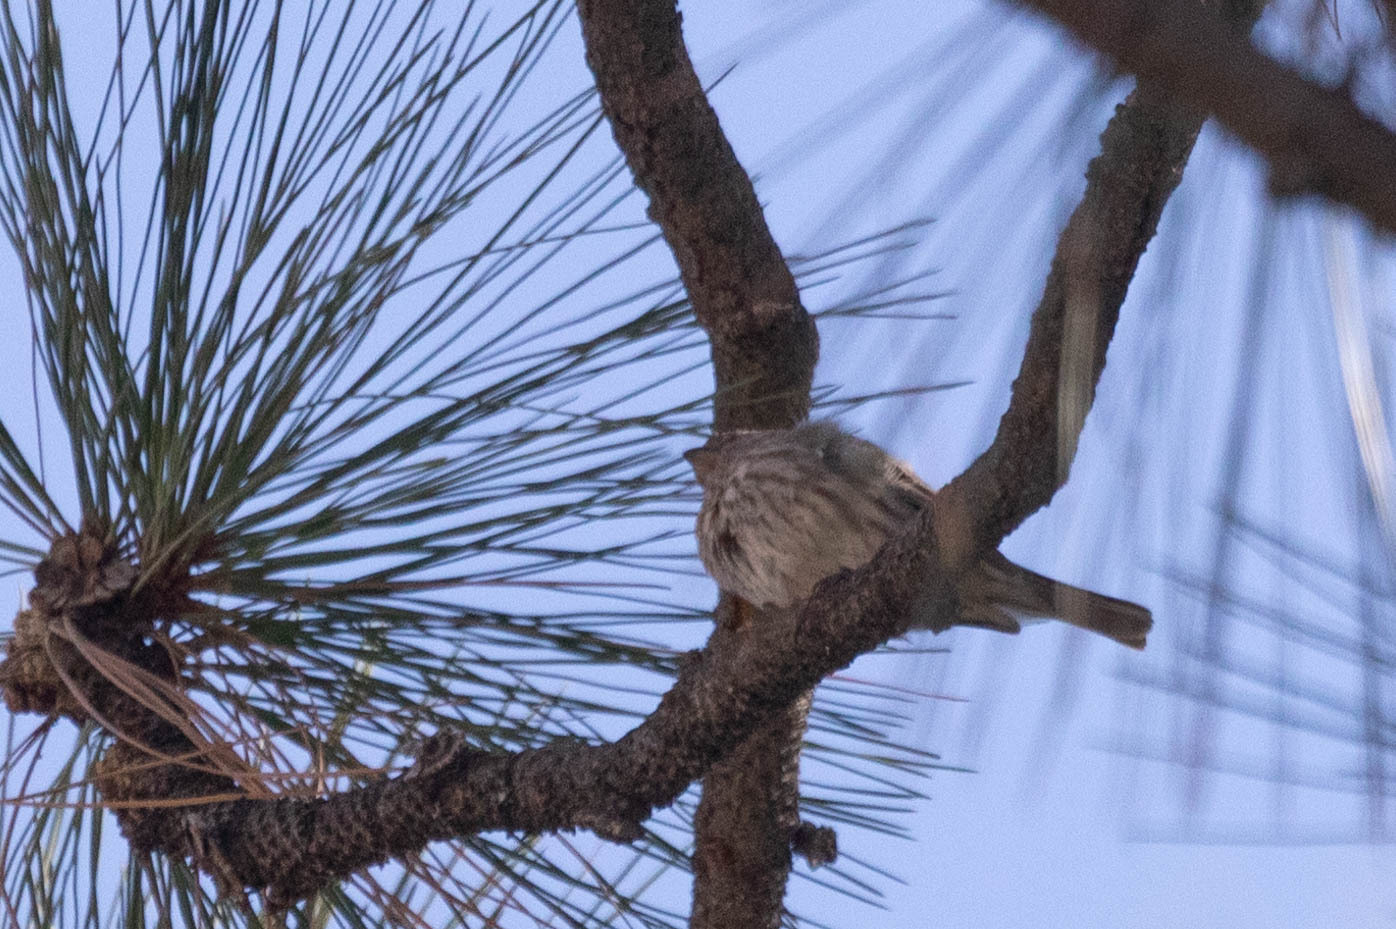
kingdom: Animalia
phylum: Chordata
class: Aves
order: Passeriformes
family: Fringillidae
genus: Haemorhous
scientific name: Haemorhous mexicanus
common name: House finch
